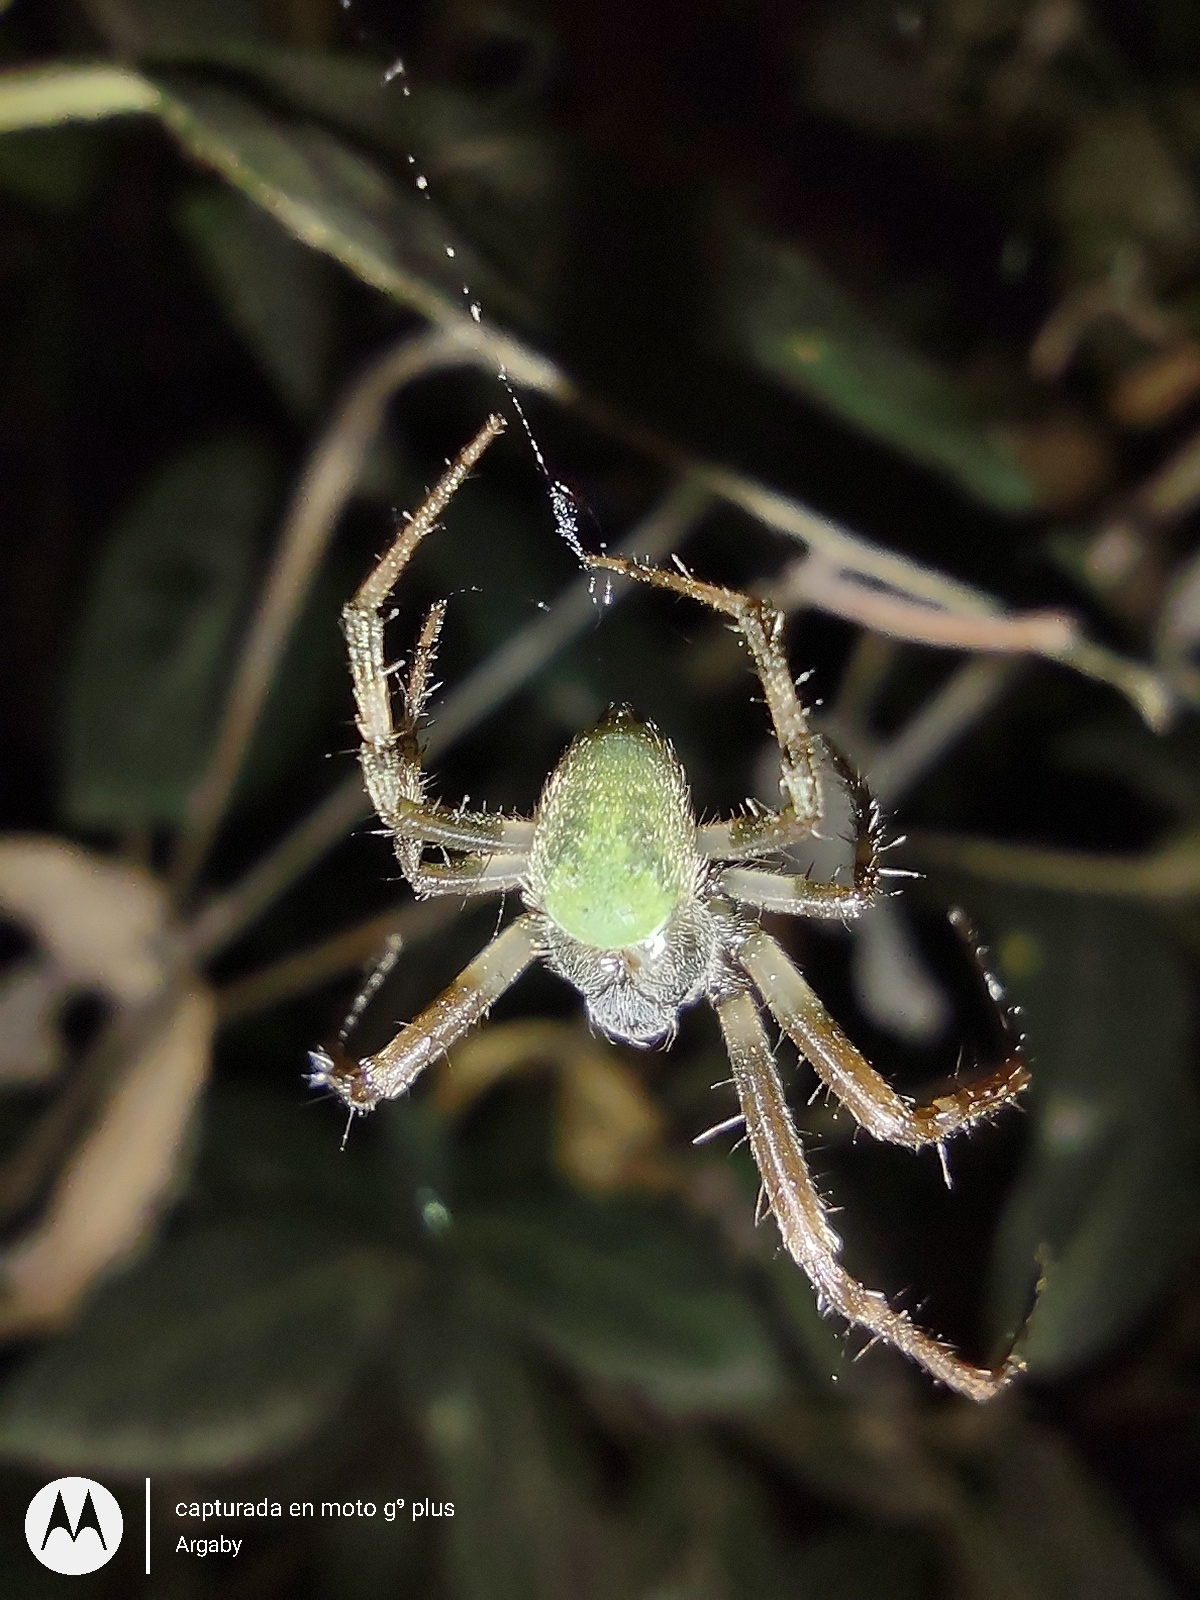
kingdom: Animalia
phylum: Arthropoda
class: Arachnida
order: Araneae
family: Araneidae
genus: Araneus
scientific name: Araneus lathyrinus
